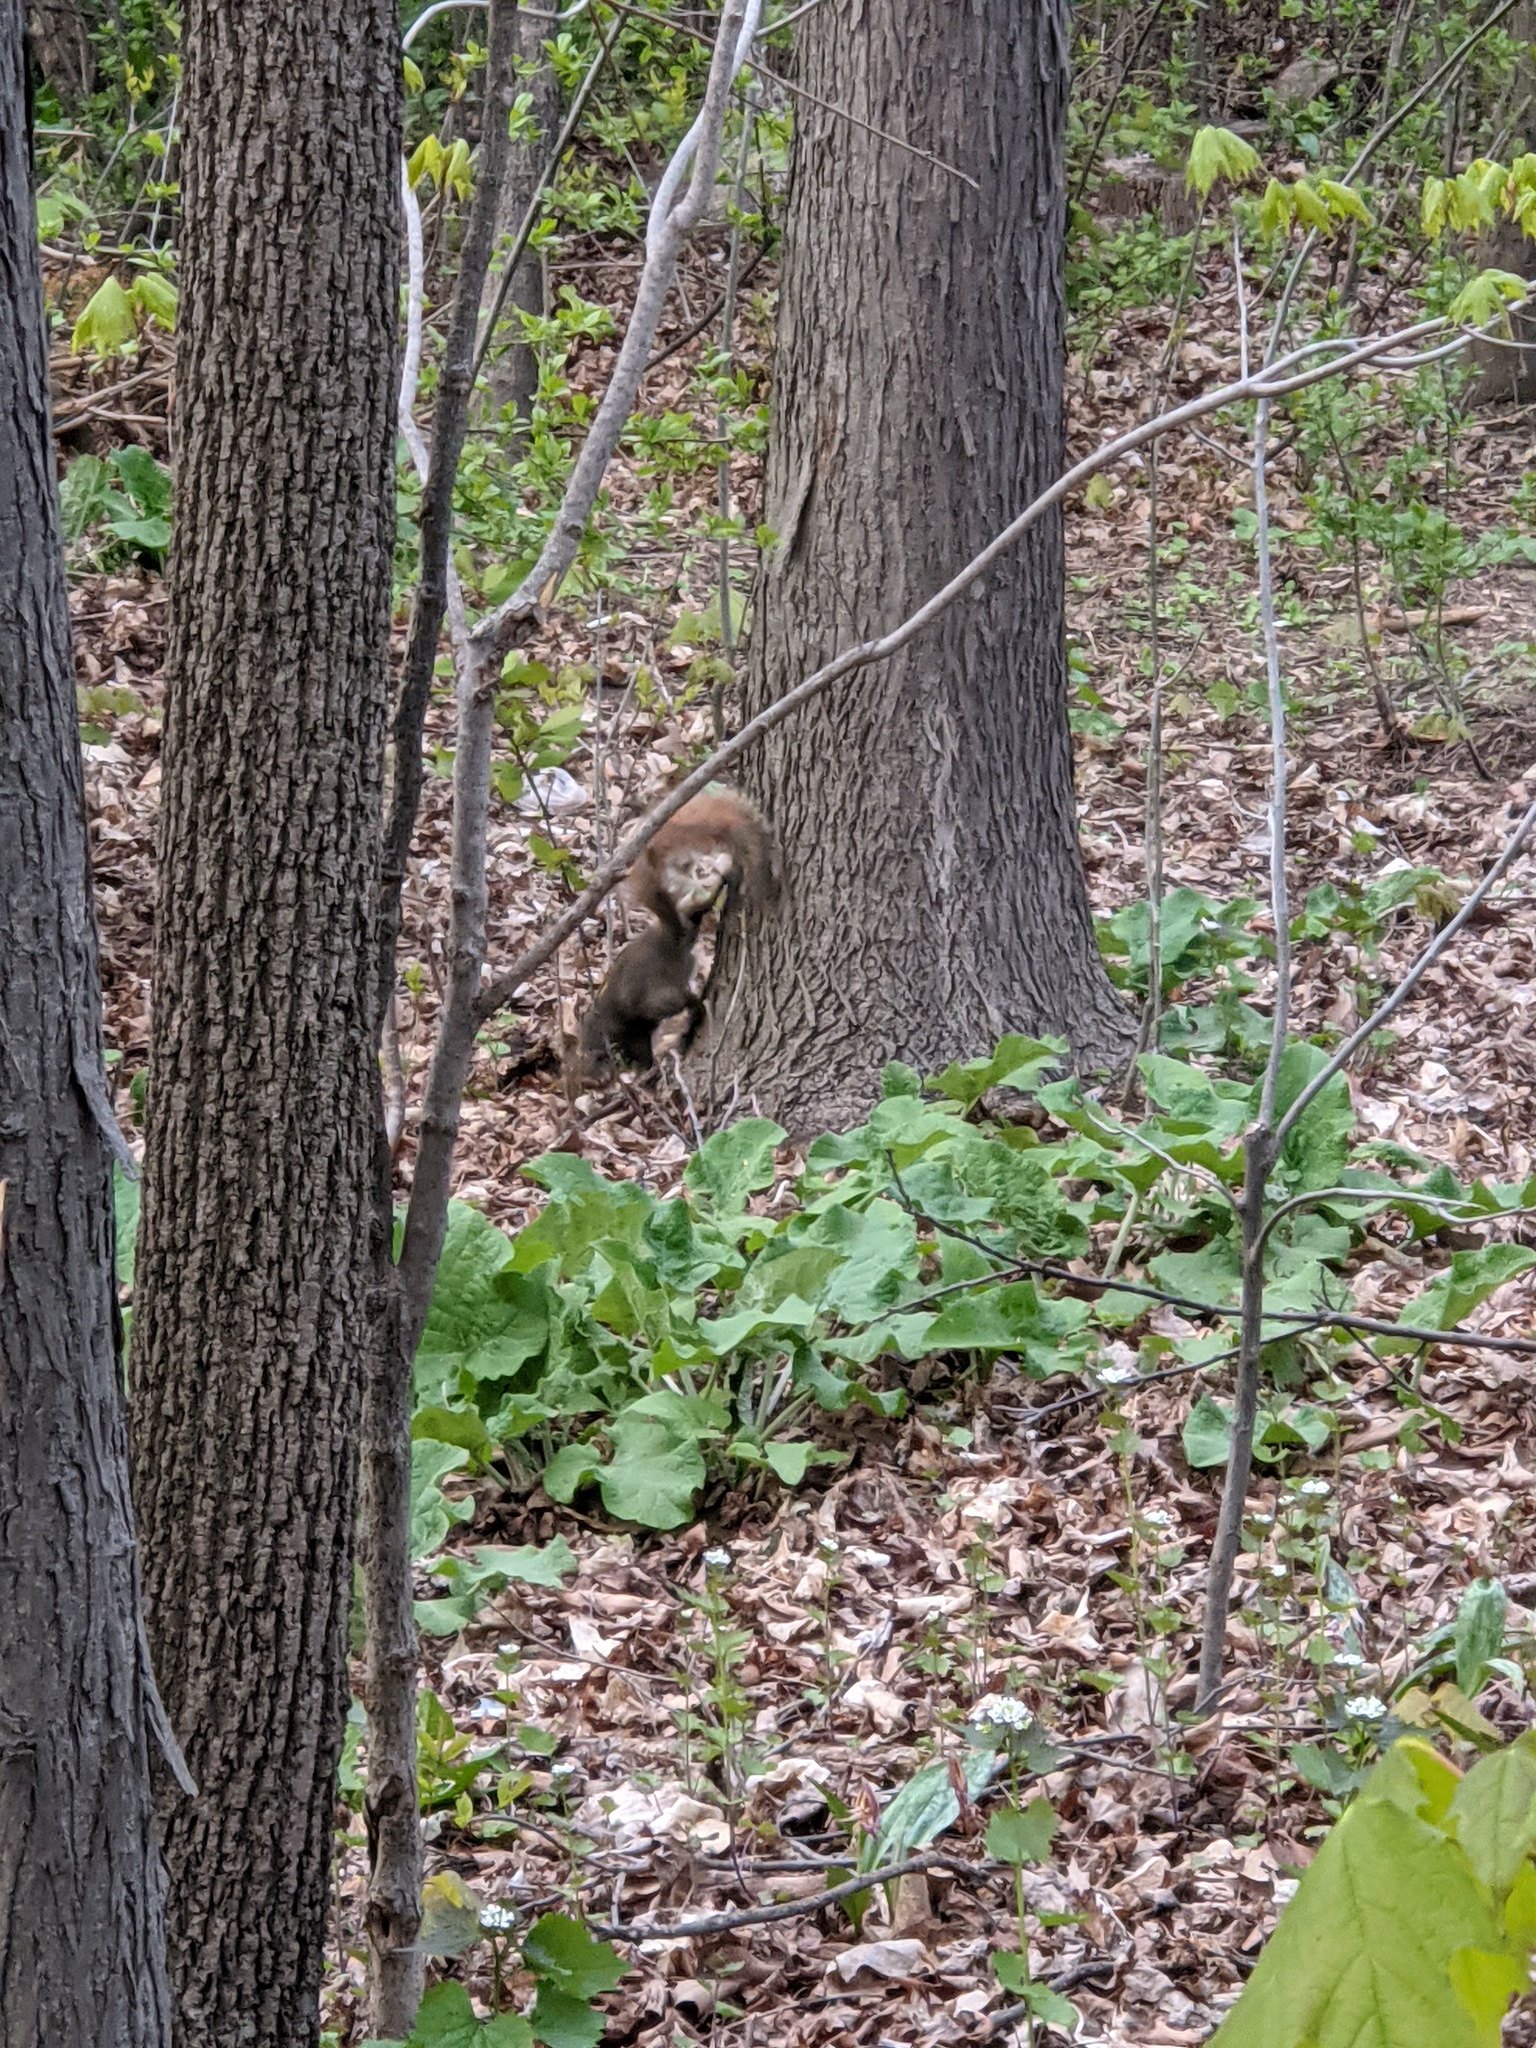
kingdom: Animalia
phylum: Chordata
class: Mammalia
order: Rodentia
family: Sciuridae
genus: Sciurus
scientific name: Sciurus carolinensis
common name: Eastern gray squirrel
